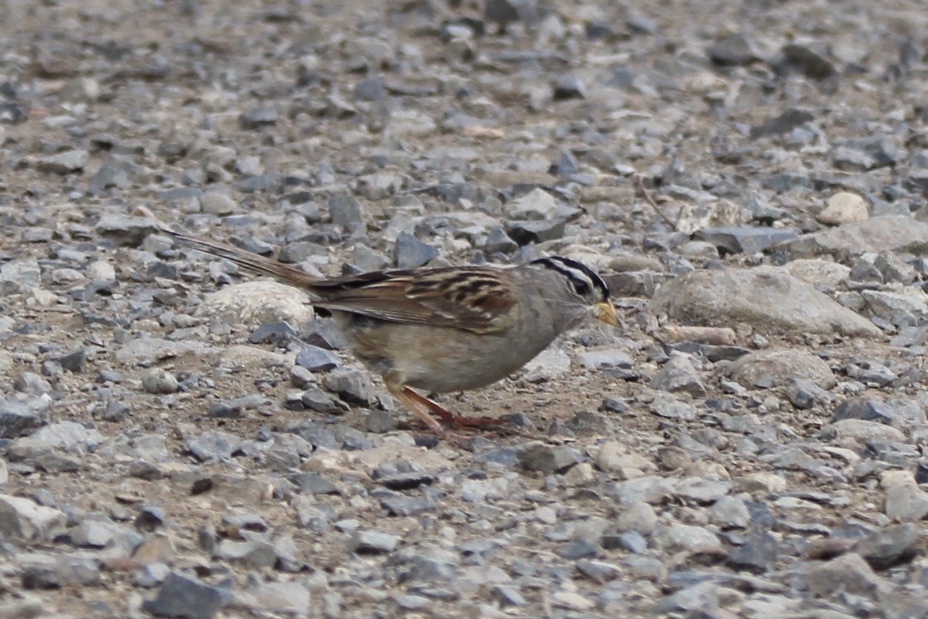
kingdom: Animalia
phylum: Chordata
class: Aves
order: Passeriformes
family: Passerellidae
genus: Zonotrichia
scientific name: Zonotrichia leucophrys
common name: White-crowned sparrow
